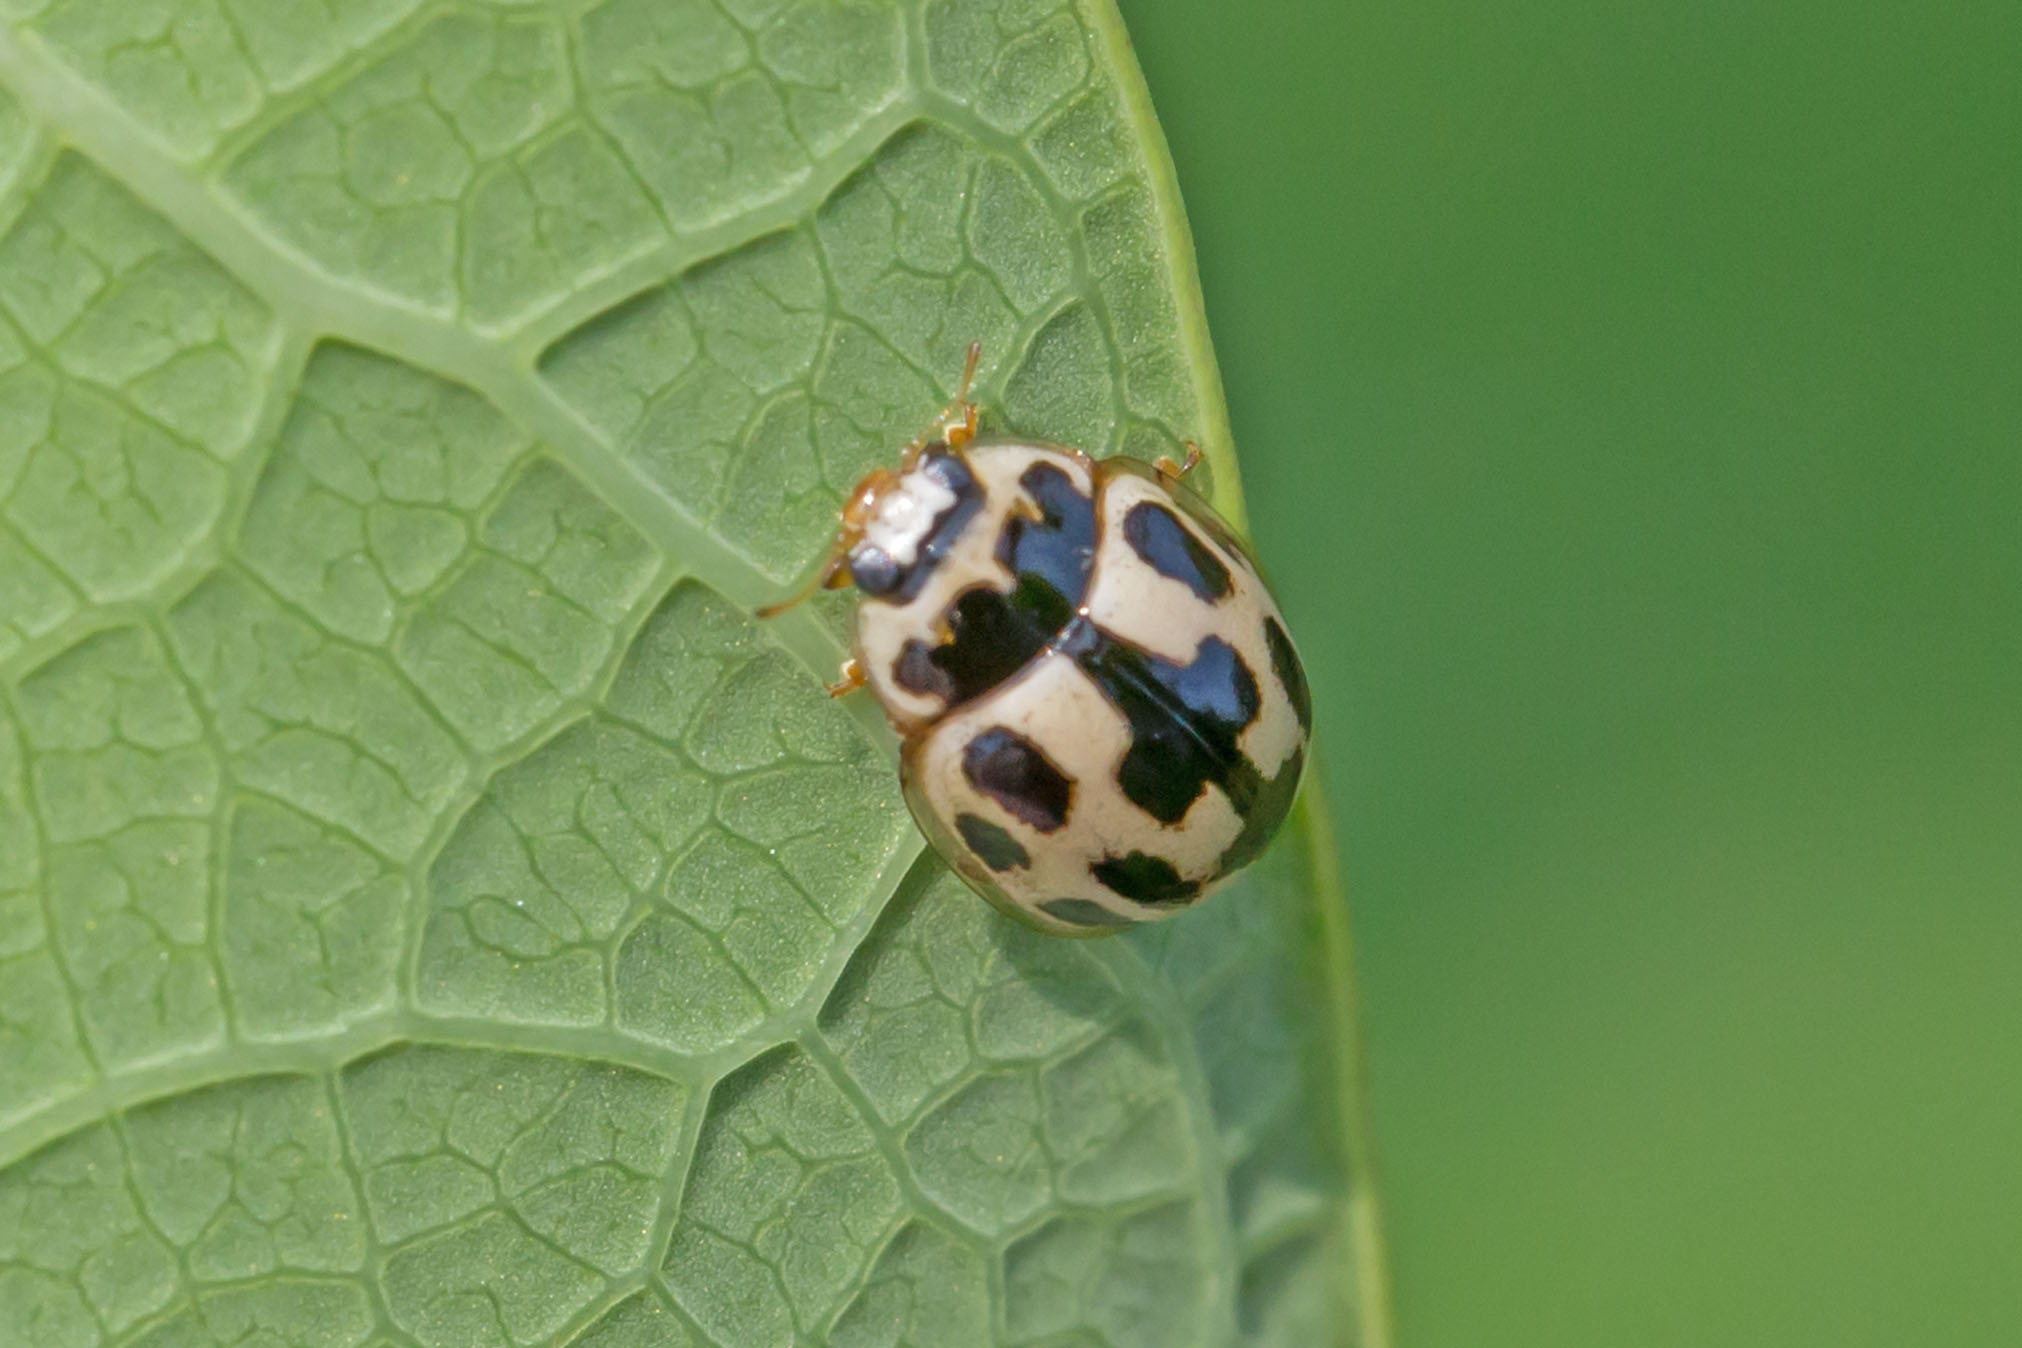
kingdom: Animalia
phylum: Arthropoda
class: Insecta
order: Coleoptera
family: Coccinellidae
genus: Propylaea
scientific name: Propylaea quatuordecimpunctata
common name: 14-spotted ladybird beetle
